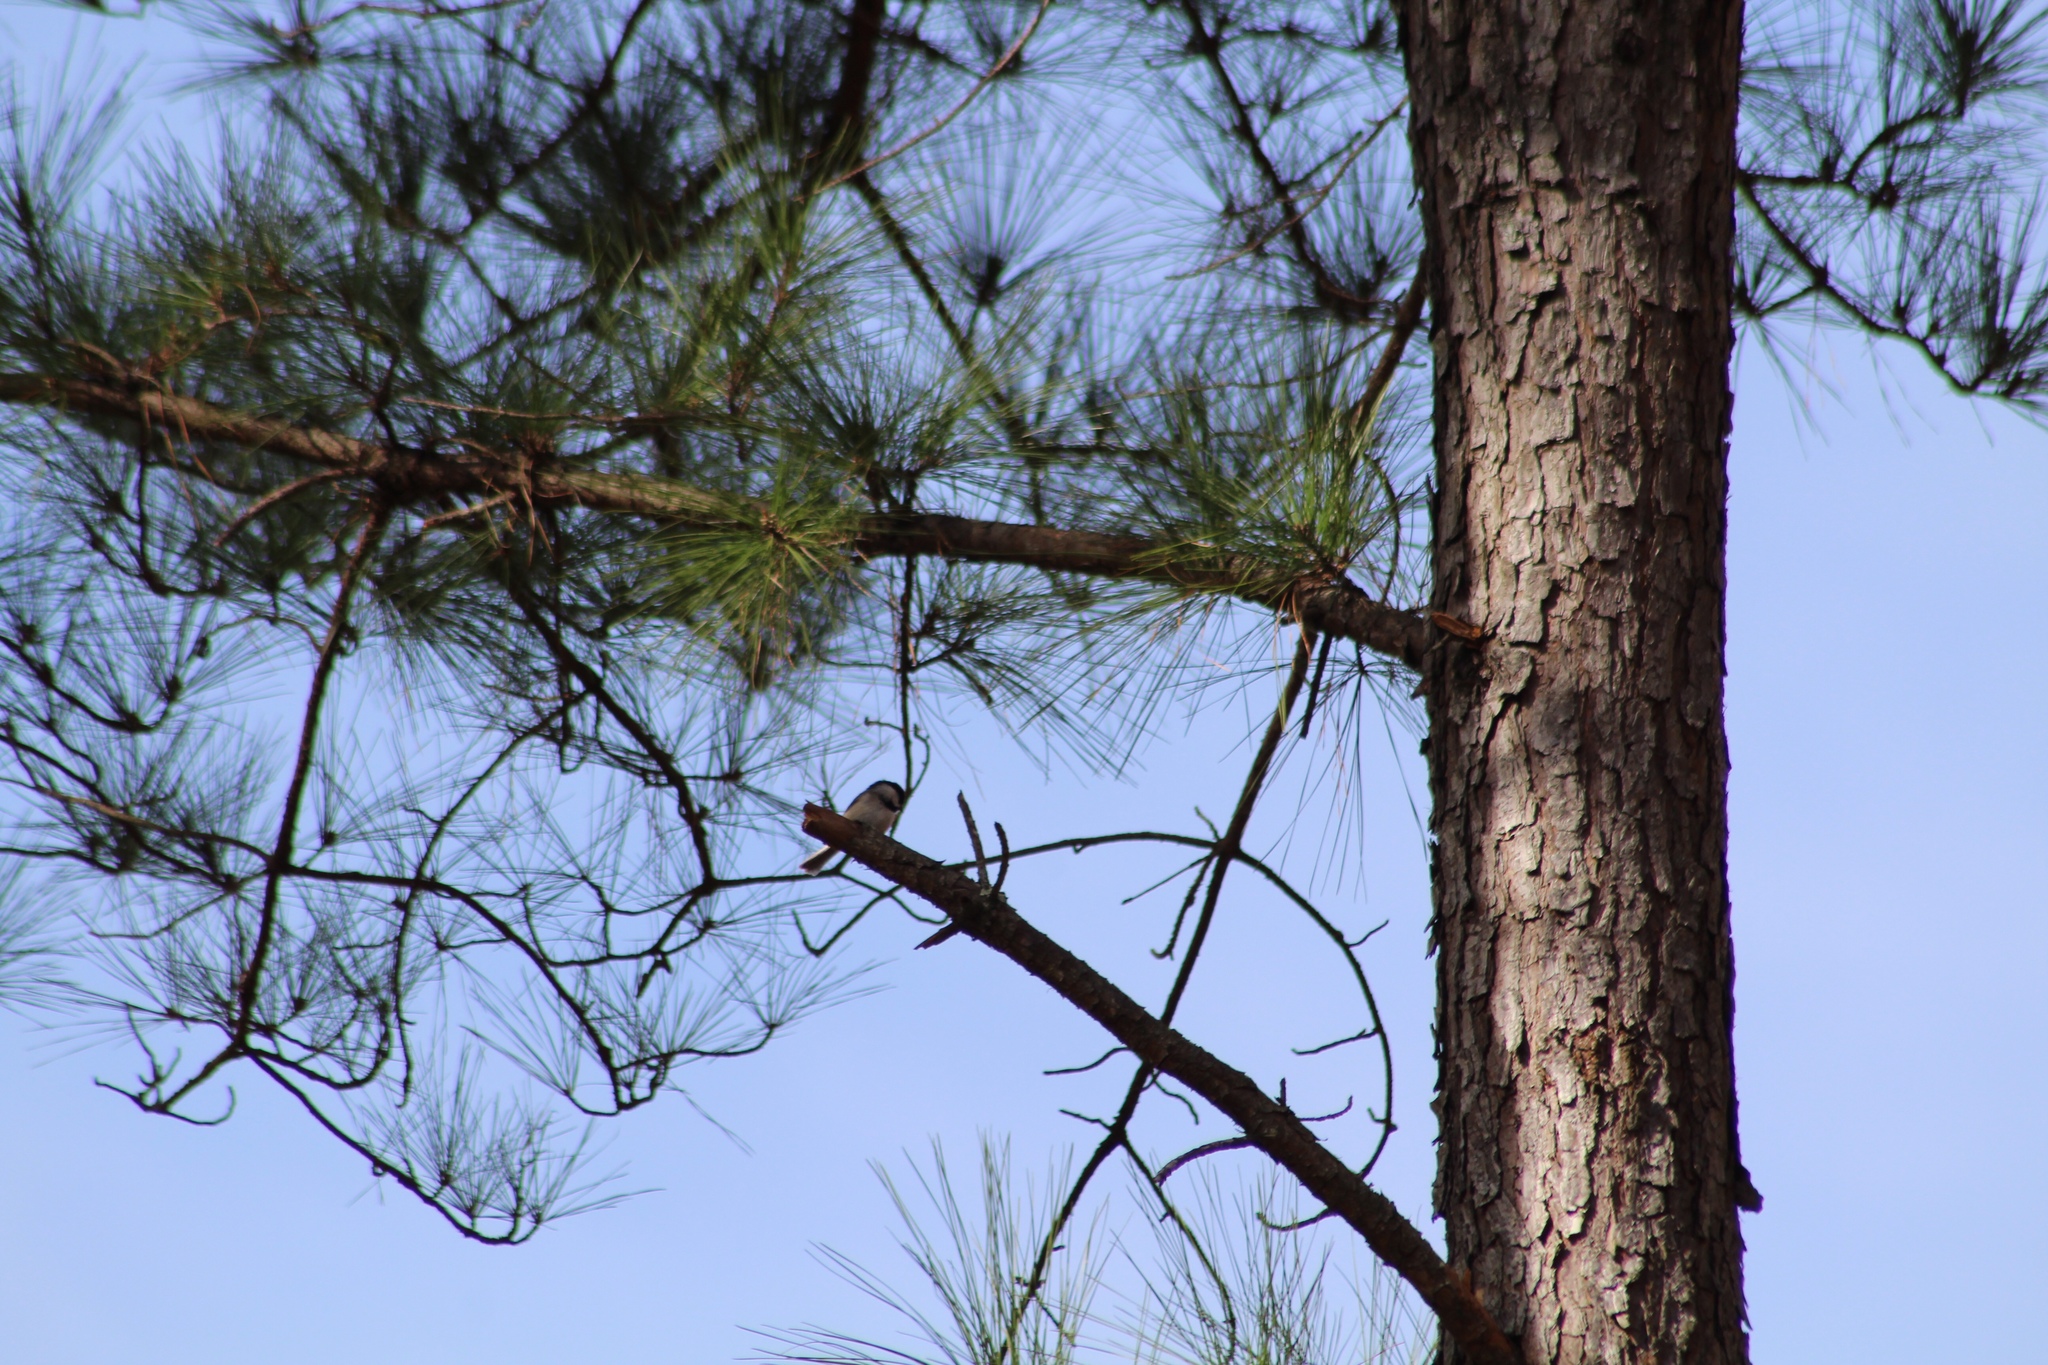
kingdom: Animalia
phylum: Chordata
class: Aves
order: Passeriformes
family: Paridae
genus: Poecile
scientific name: Poecile carolinensis
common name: Carolina chickadee
